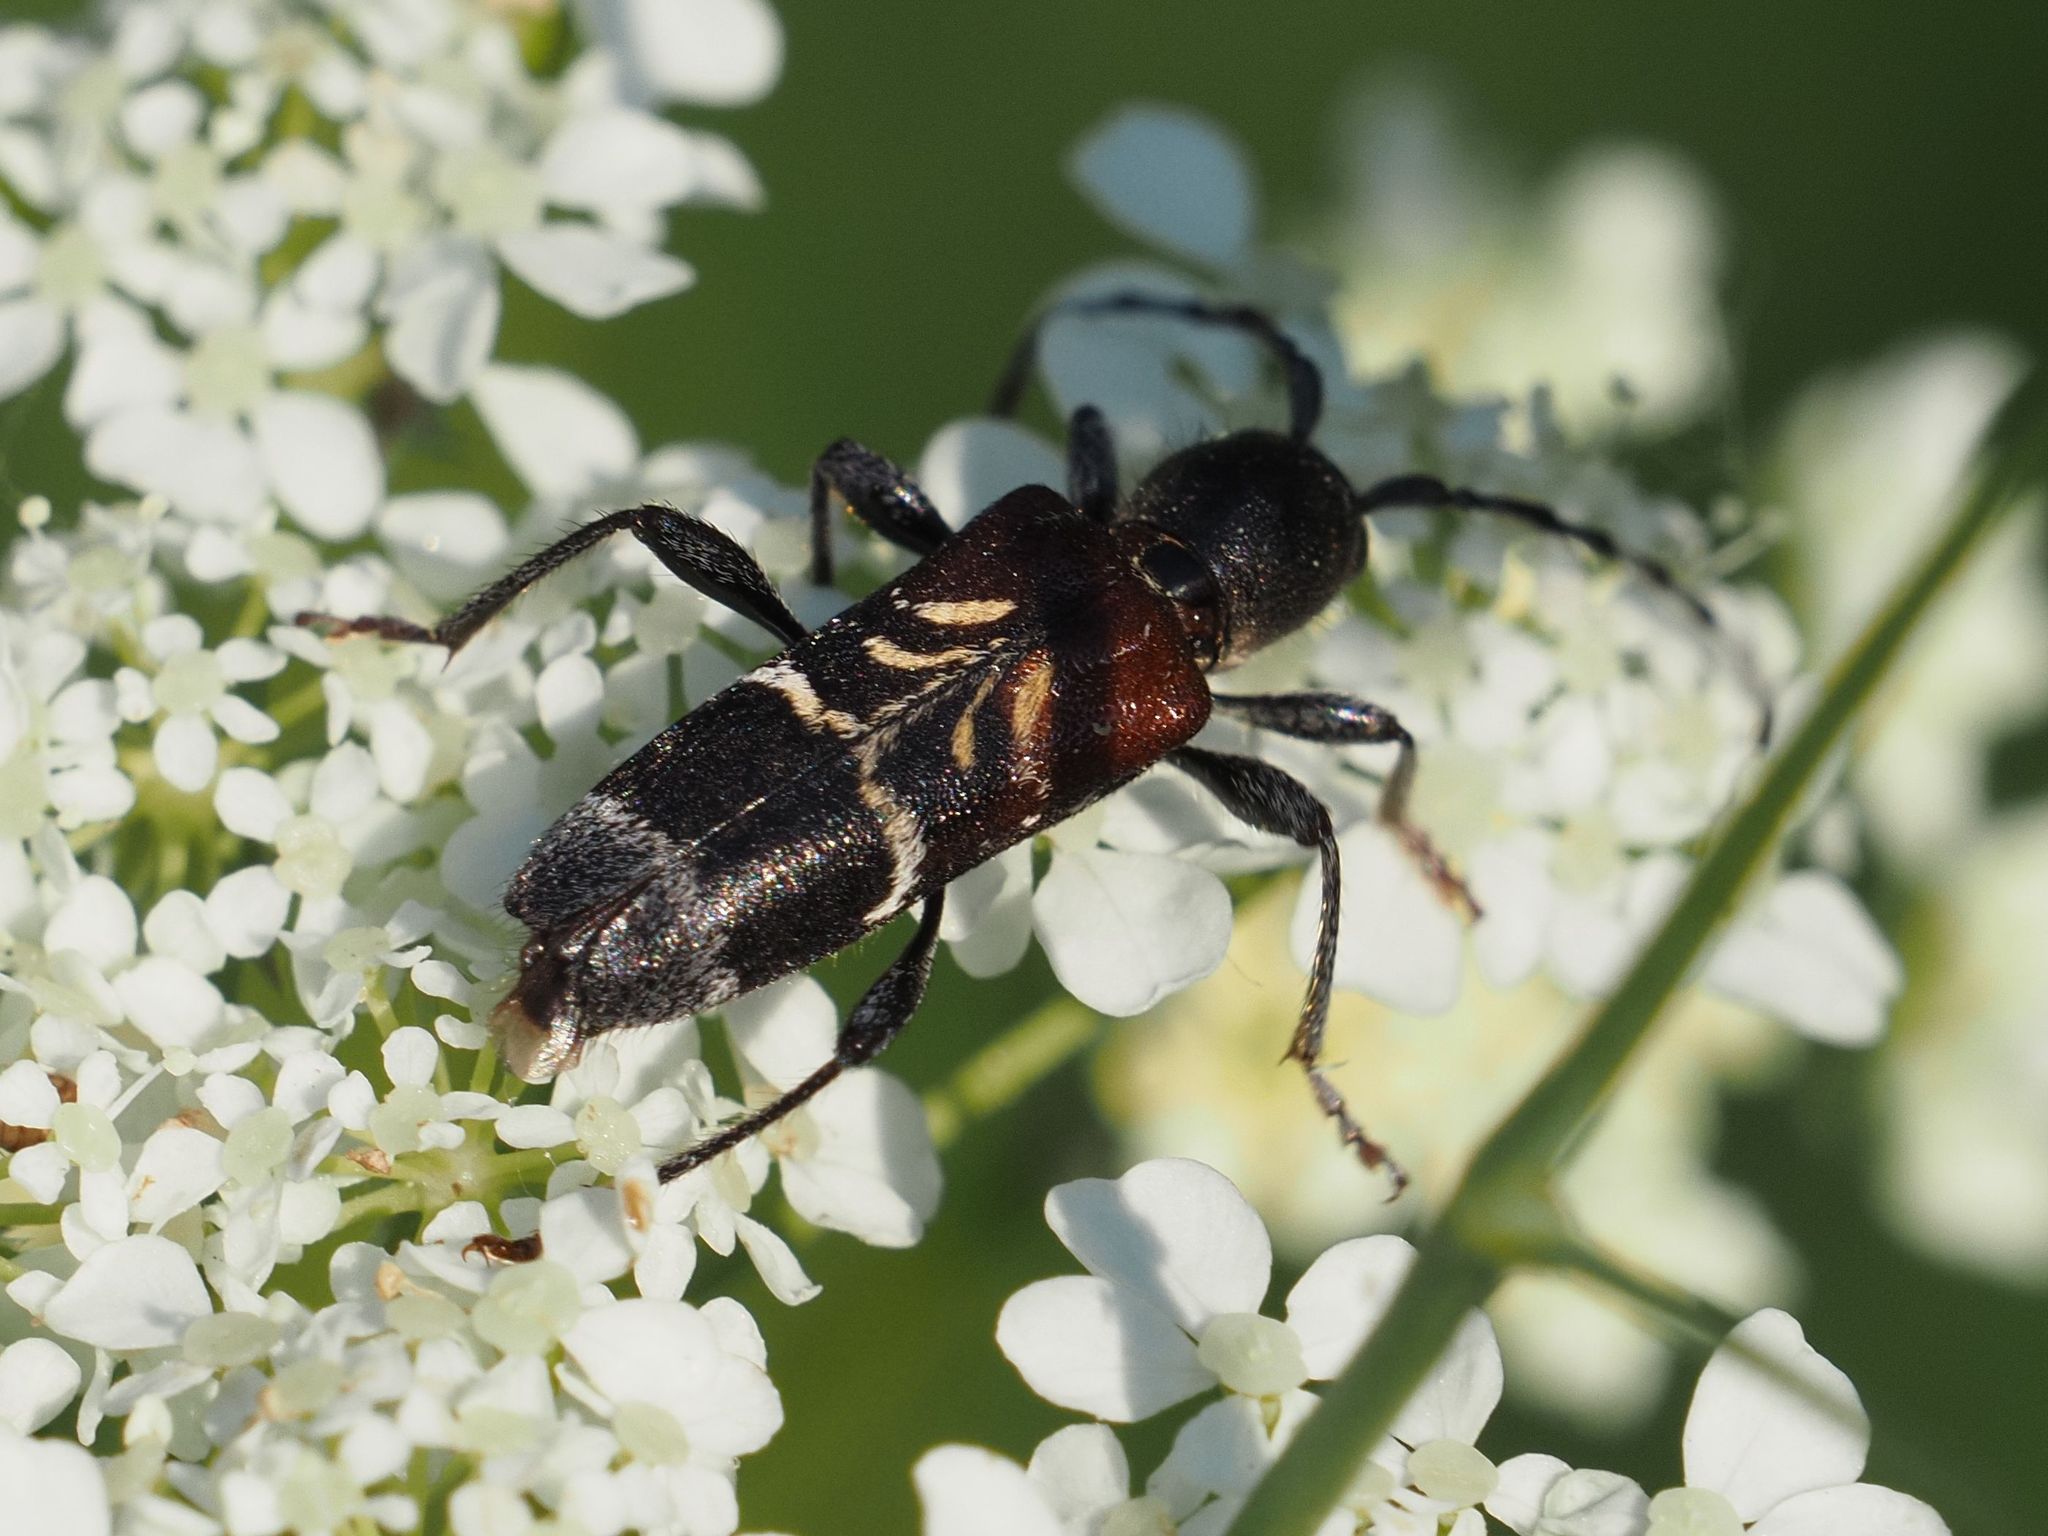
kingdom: Animalia
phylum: Arthropoda
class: Insecta
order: Coleoptera
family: Cerambycidae
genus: Anaglyptus
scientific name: Anaglyptus mysticus
